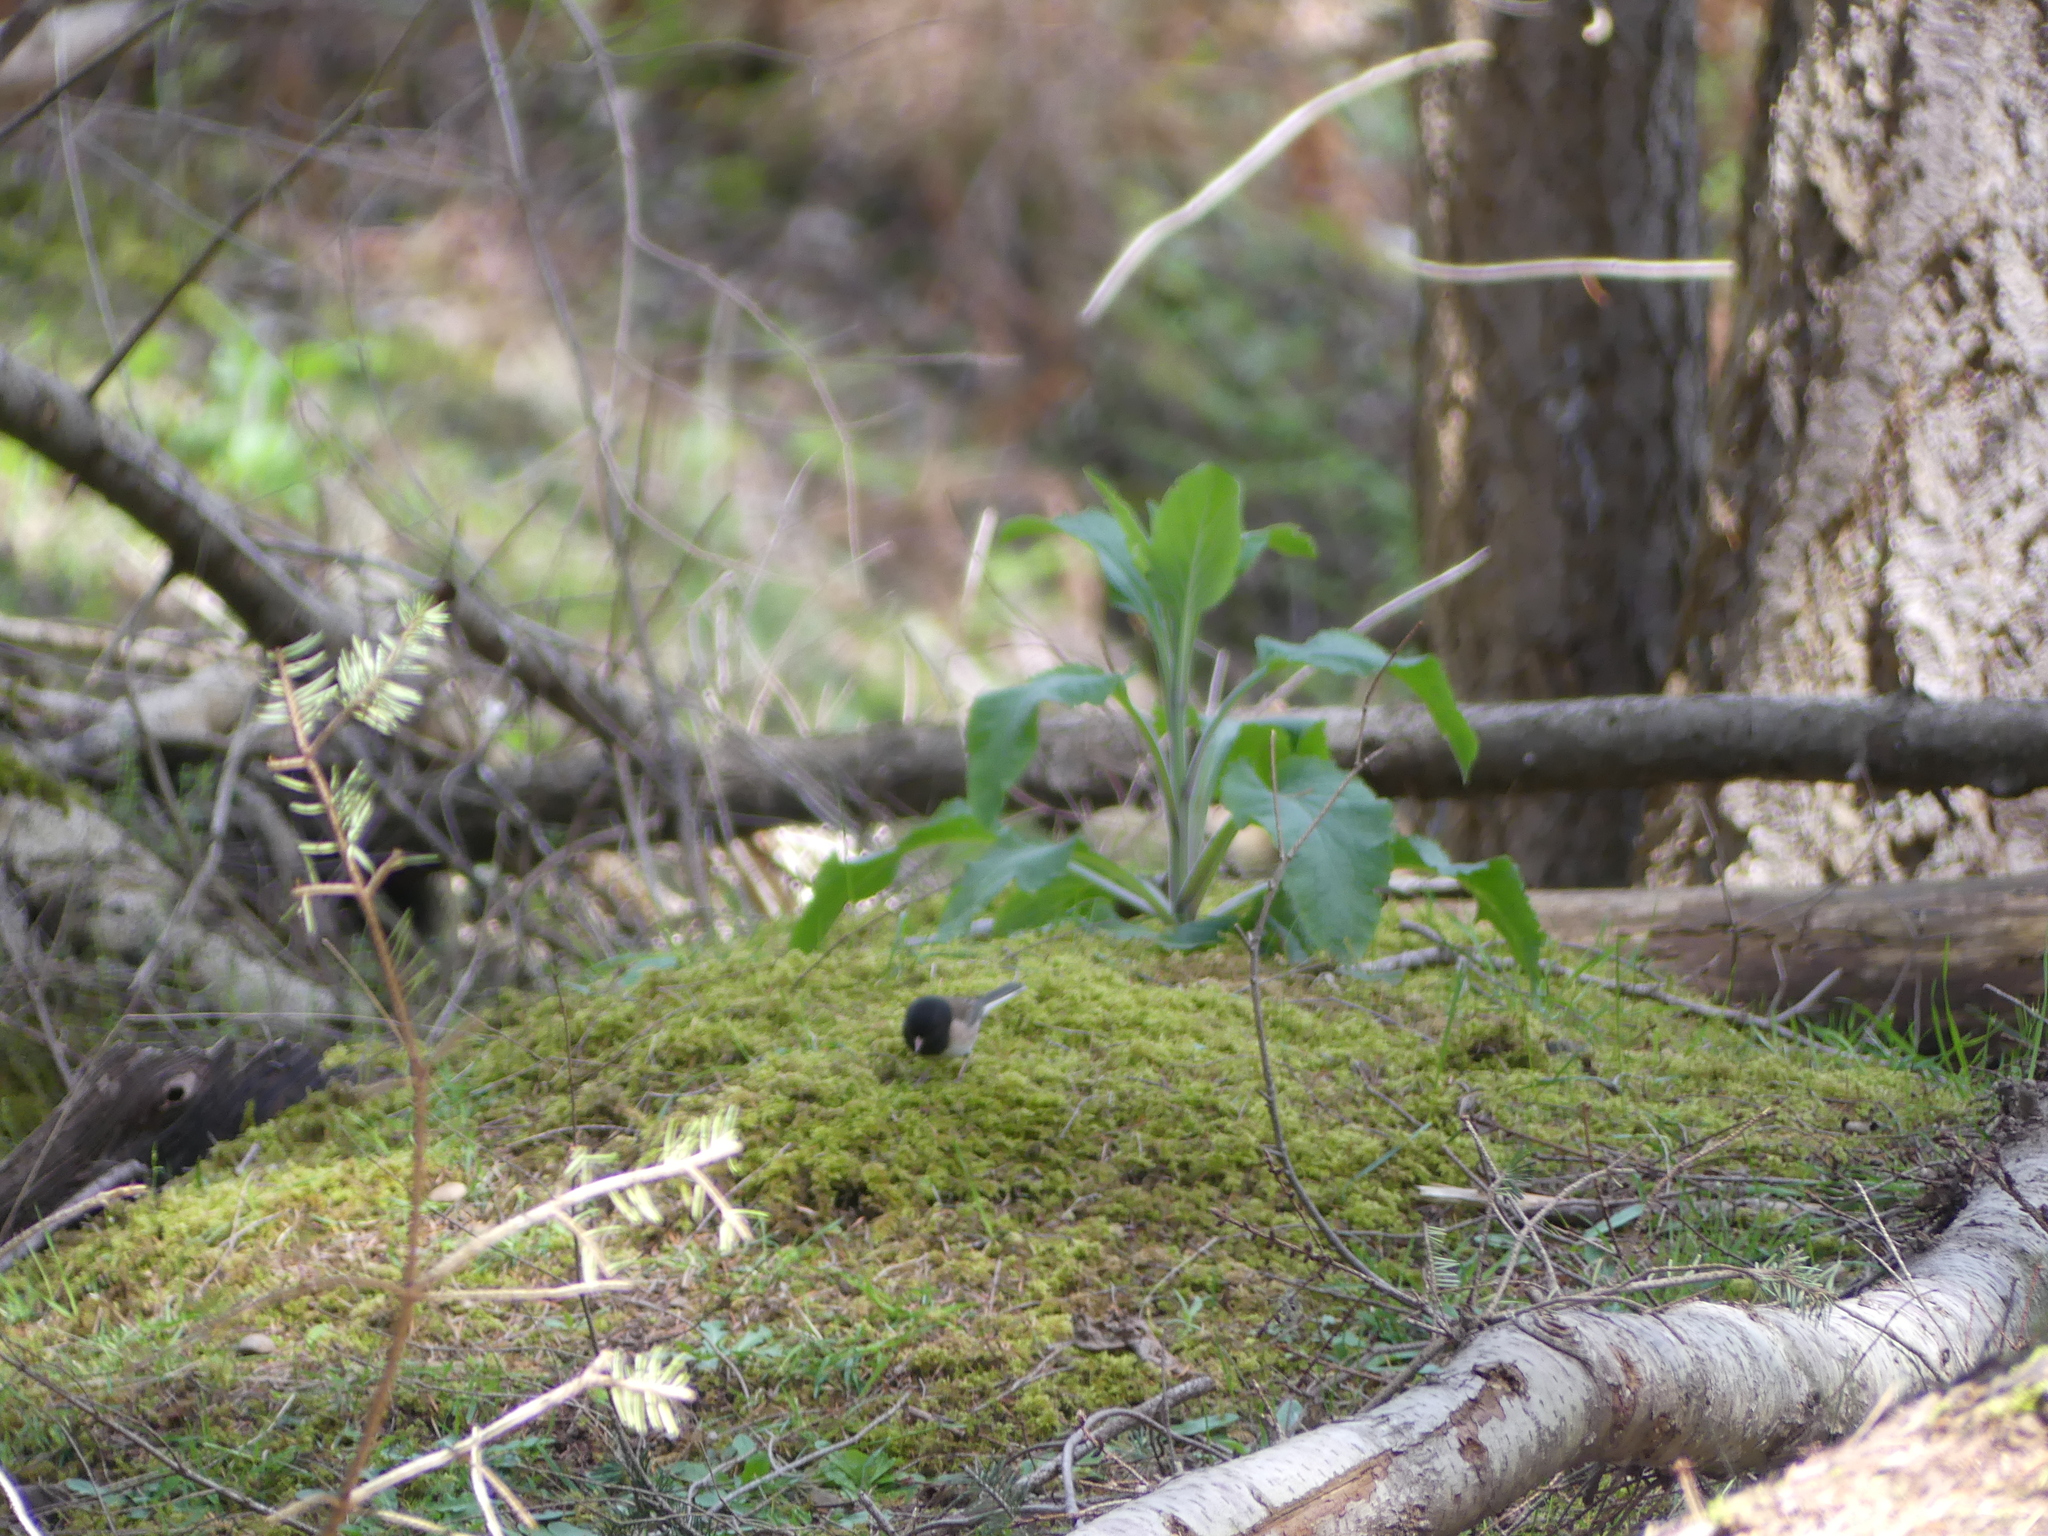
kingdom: Animalia
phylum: Chordata
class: Aves
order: Passeriformes
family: Passerellidae
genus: Junco
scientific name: Junco hyemalis
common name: Dark-eyed junco
